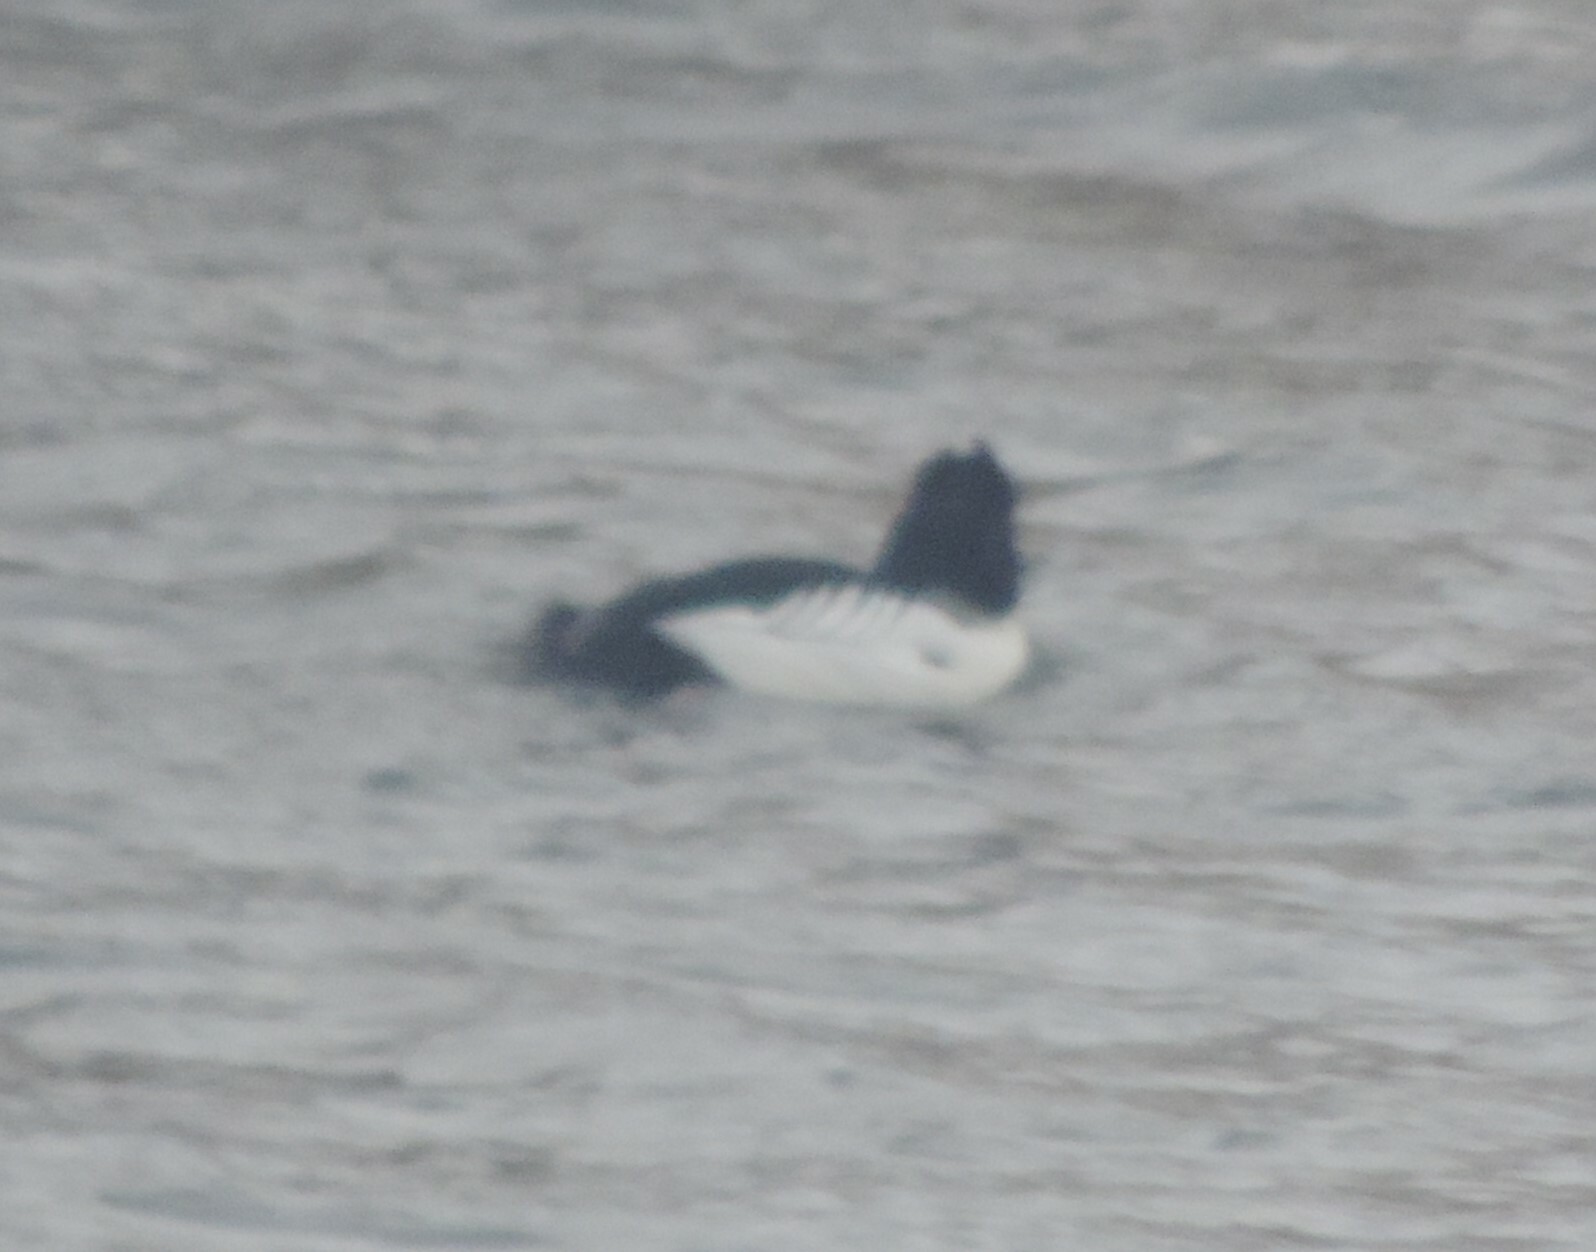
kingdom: Animalia
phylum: Chordata
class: Aves
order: Anseriformes
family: Anatidae
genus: Bucephala
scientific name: Bucephala clangula
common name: Common goldeneye
